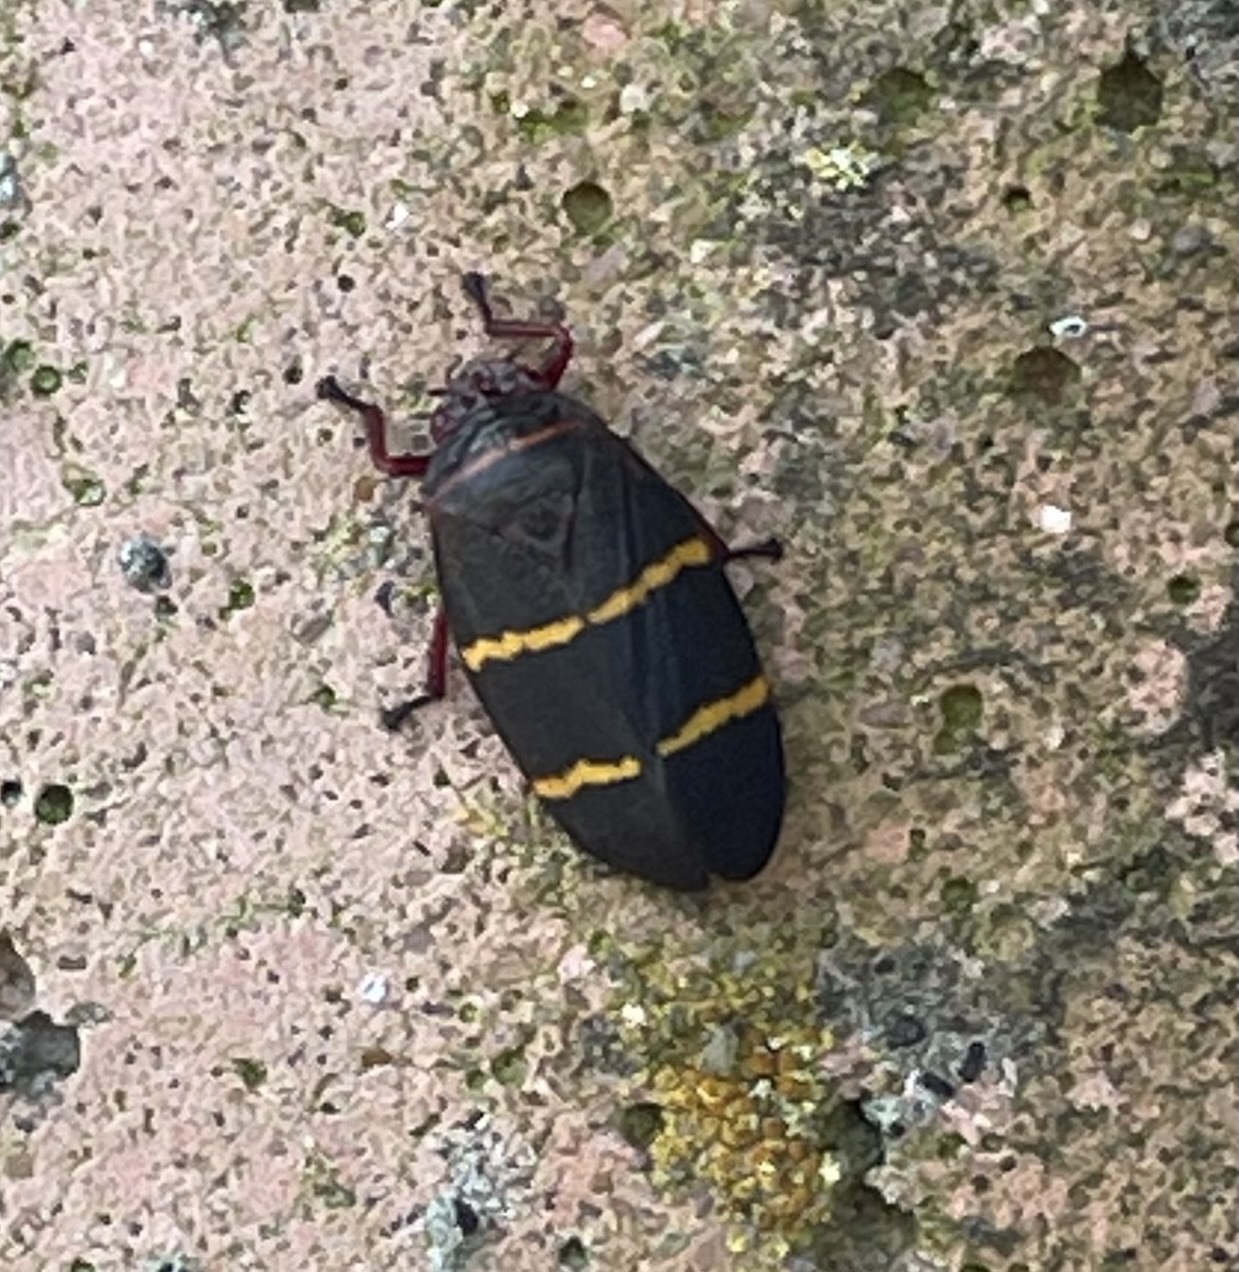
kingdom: Animalia
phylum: Arthropoda
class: Insecta
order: Hemiptera
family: Cercopidae
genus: Prosapia
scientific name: Prosapia bicincta
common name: Twolined spittlebug
